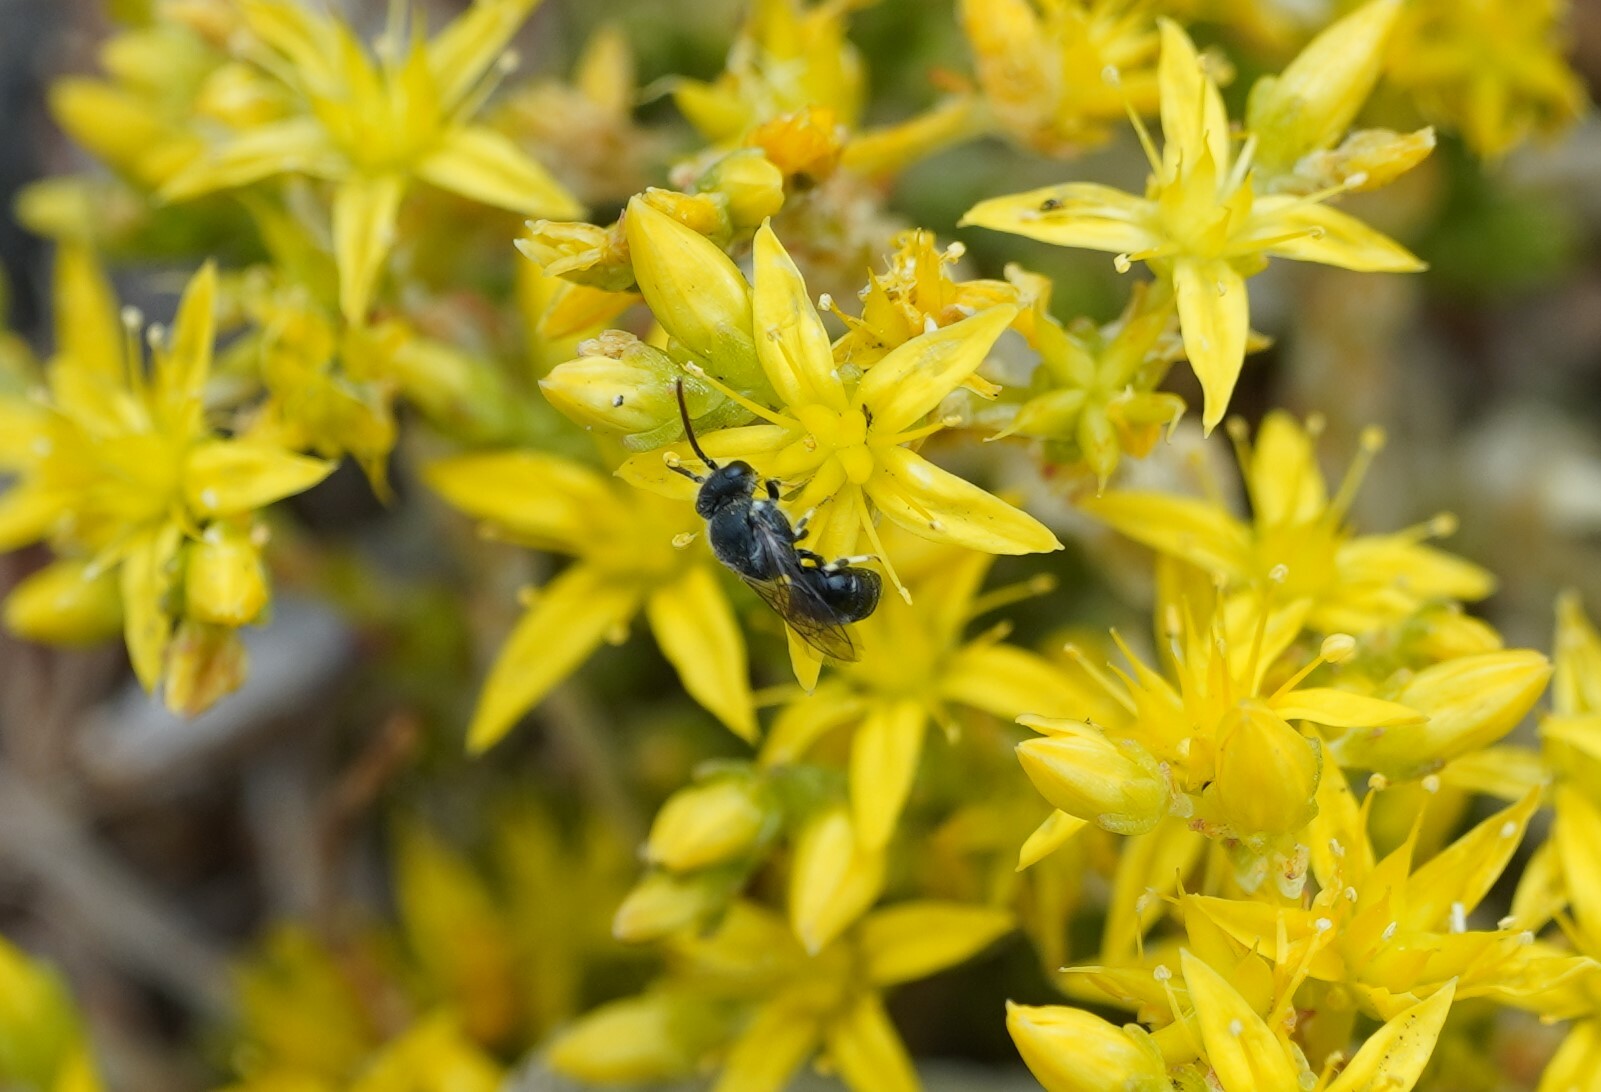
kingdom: Animalia
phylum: Arthropoda
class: Insecta
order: Hymenoptera
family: Colletidae
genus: Hylaeus
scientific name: Hylaeus hyalinatus
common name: Hyaline masked bee
